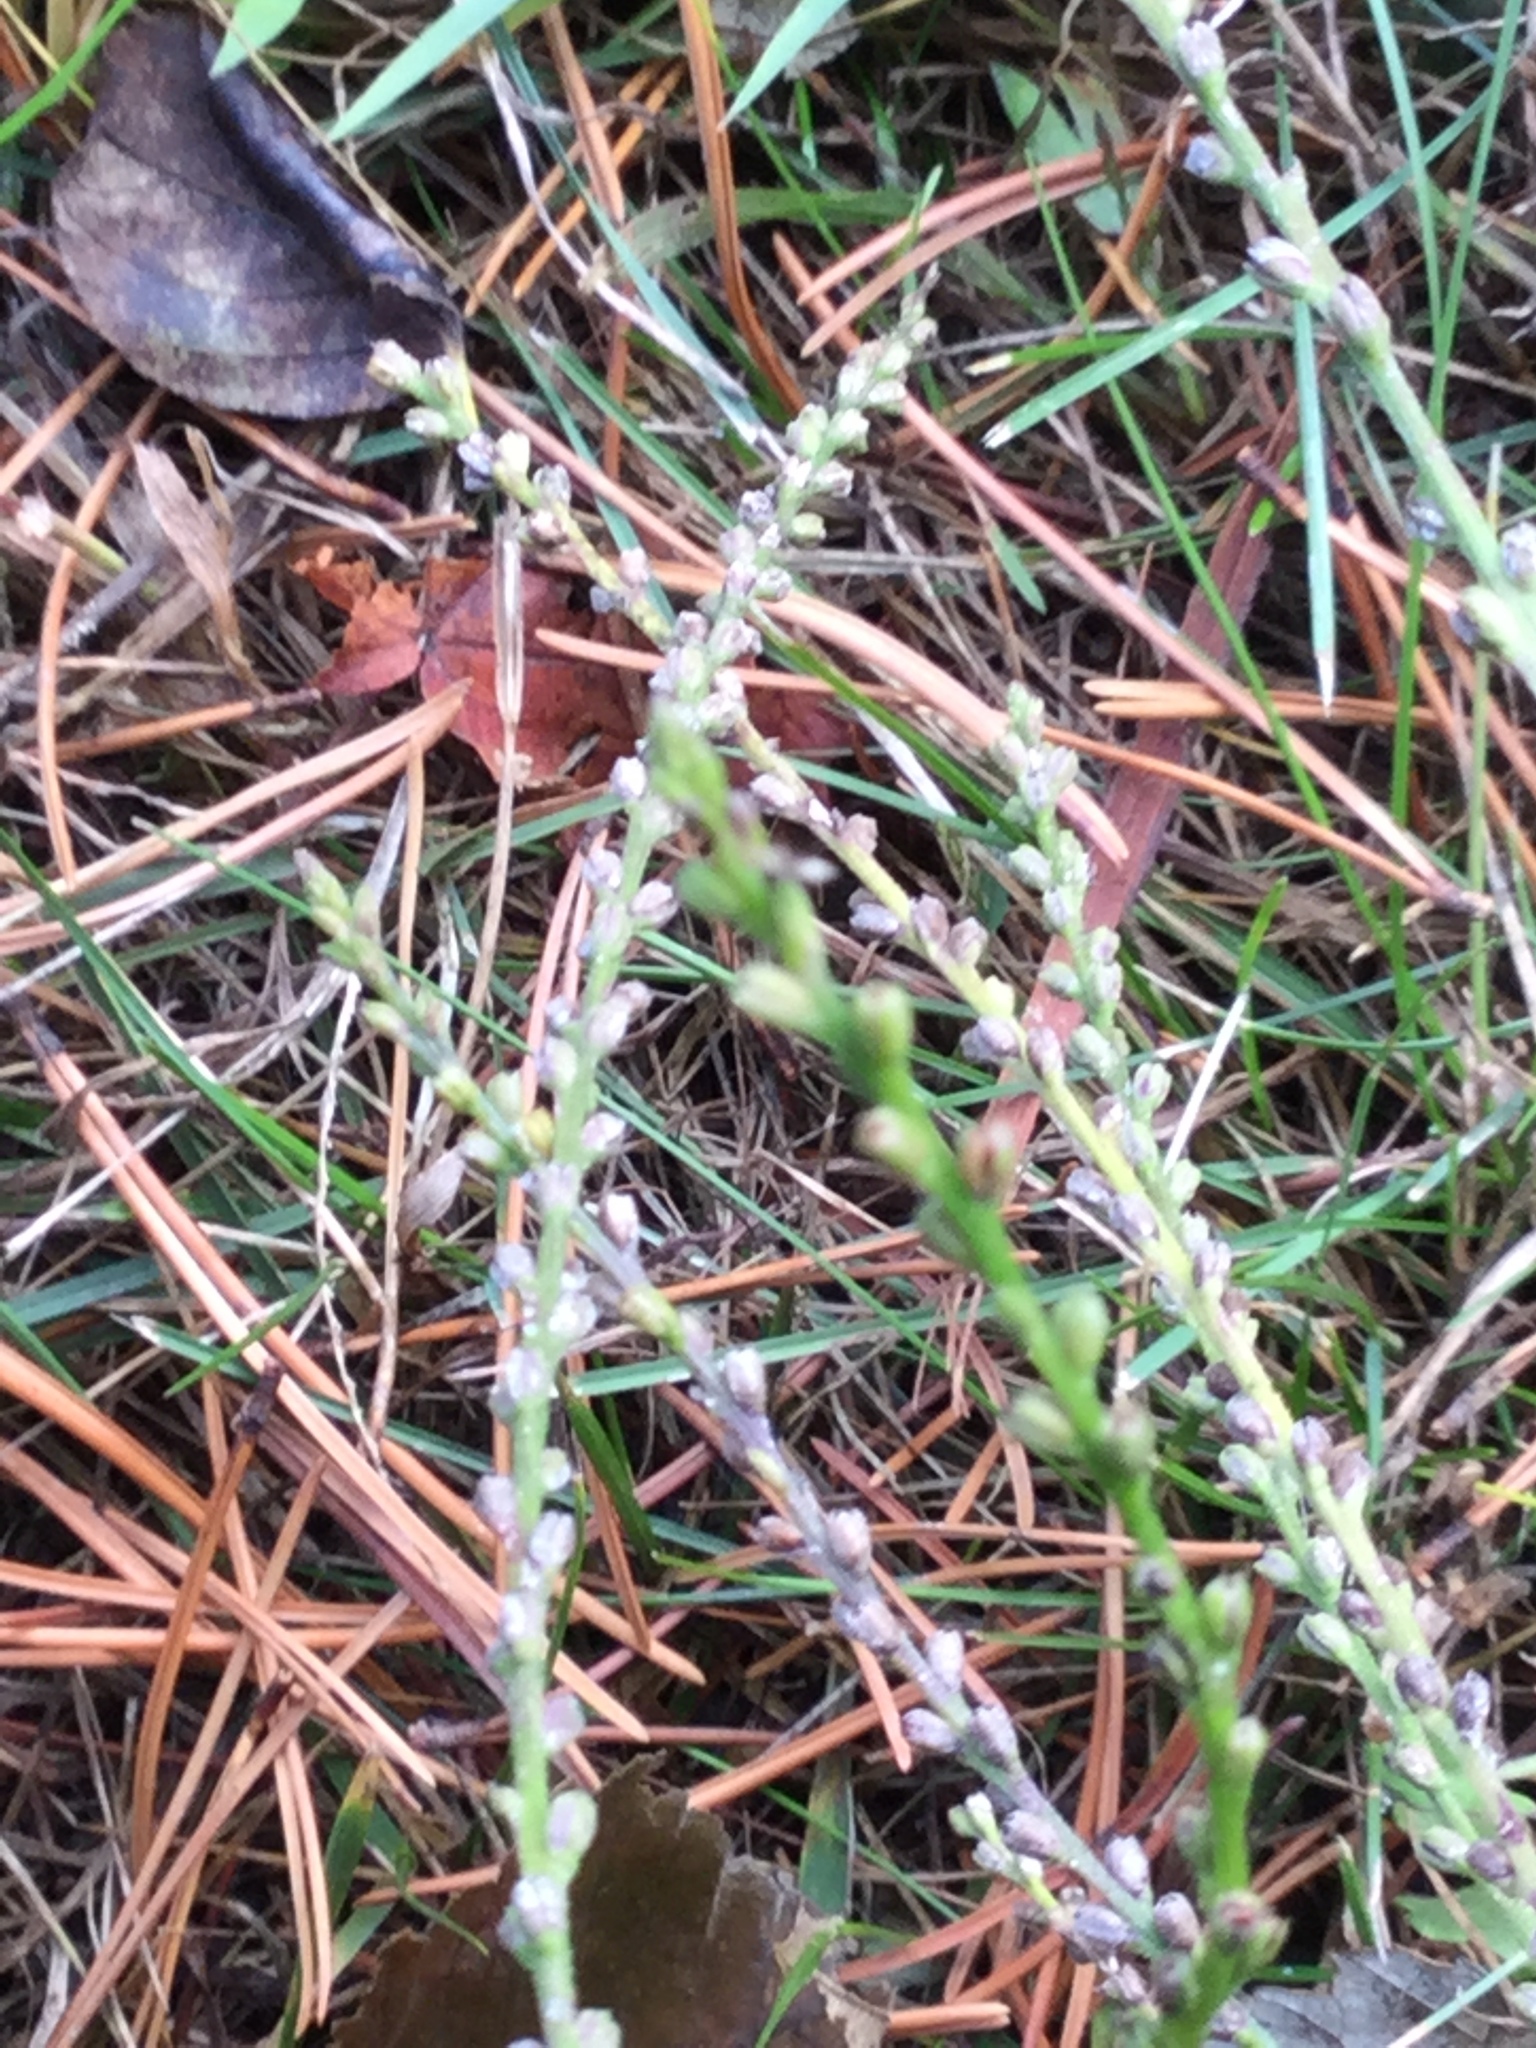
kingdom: Plantae
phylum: Tracheophyta
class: Magnoliopsida
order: Lamiales
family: Verbenaceae
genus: Verbena
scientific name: Verbena urticifolia
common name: Nettle-leaved vervain
